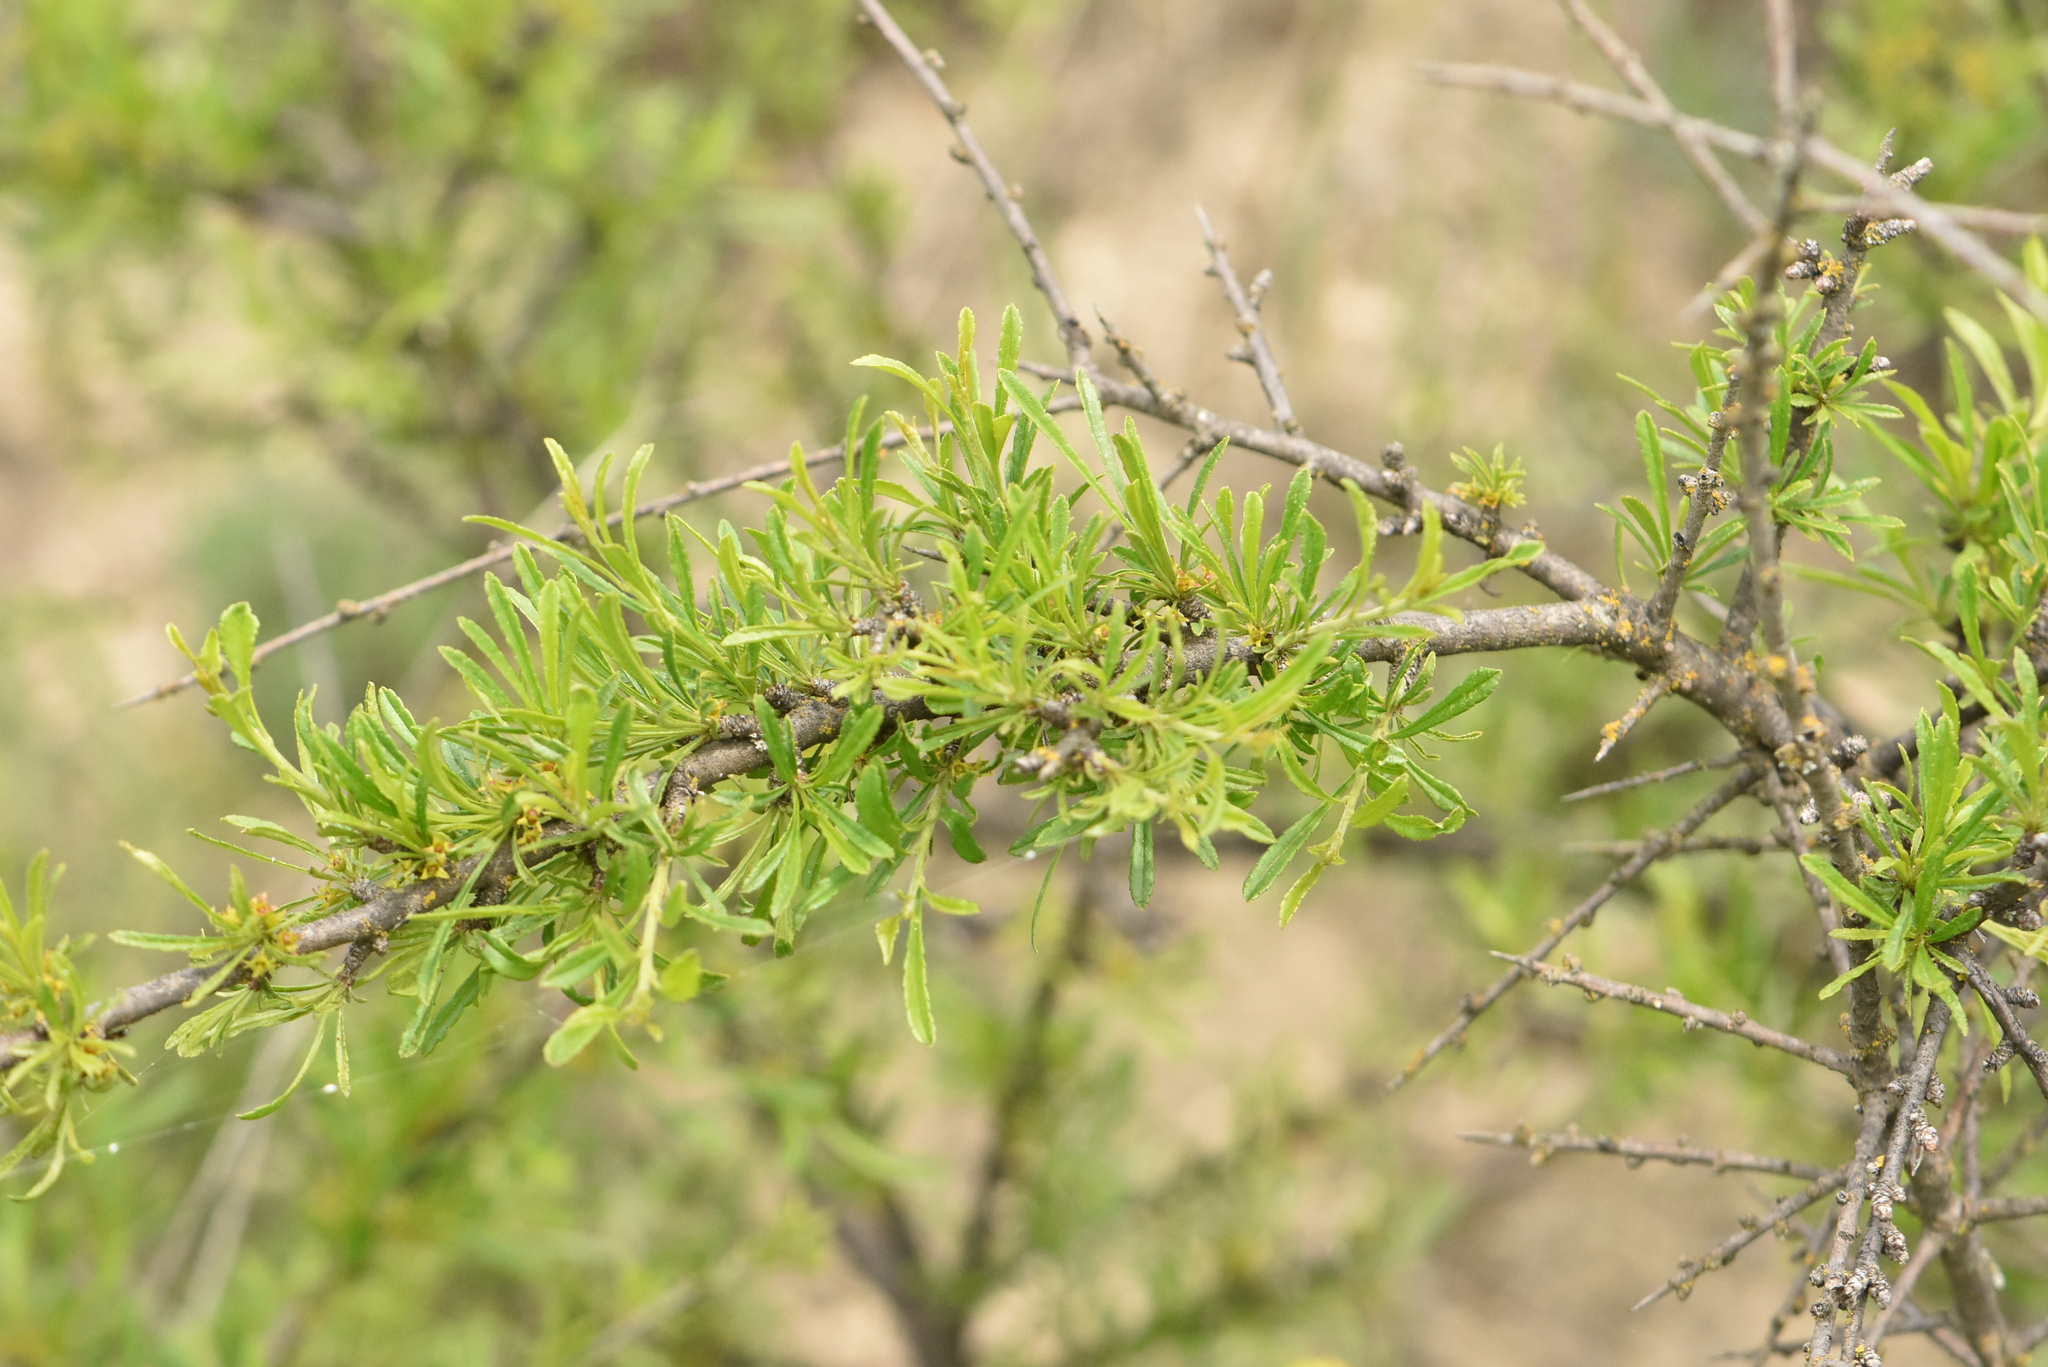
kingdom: Plantae
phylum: Tracheophyta
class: Magnoliopsida
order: Rosales
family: Rhamnaceae
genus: Rhamnus
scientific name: Rhamnus erythroxyloides
